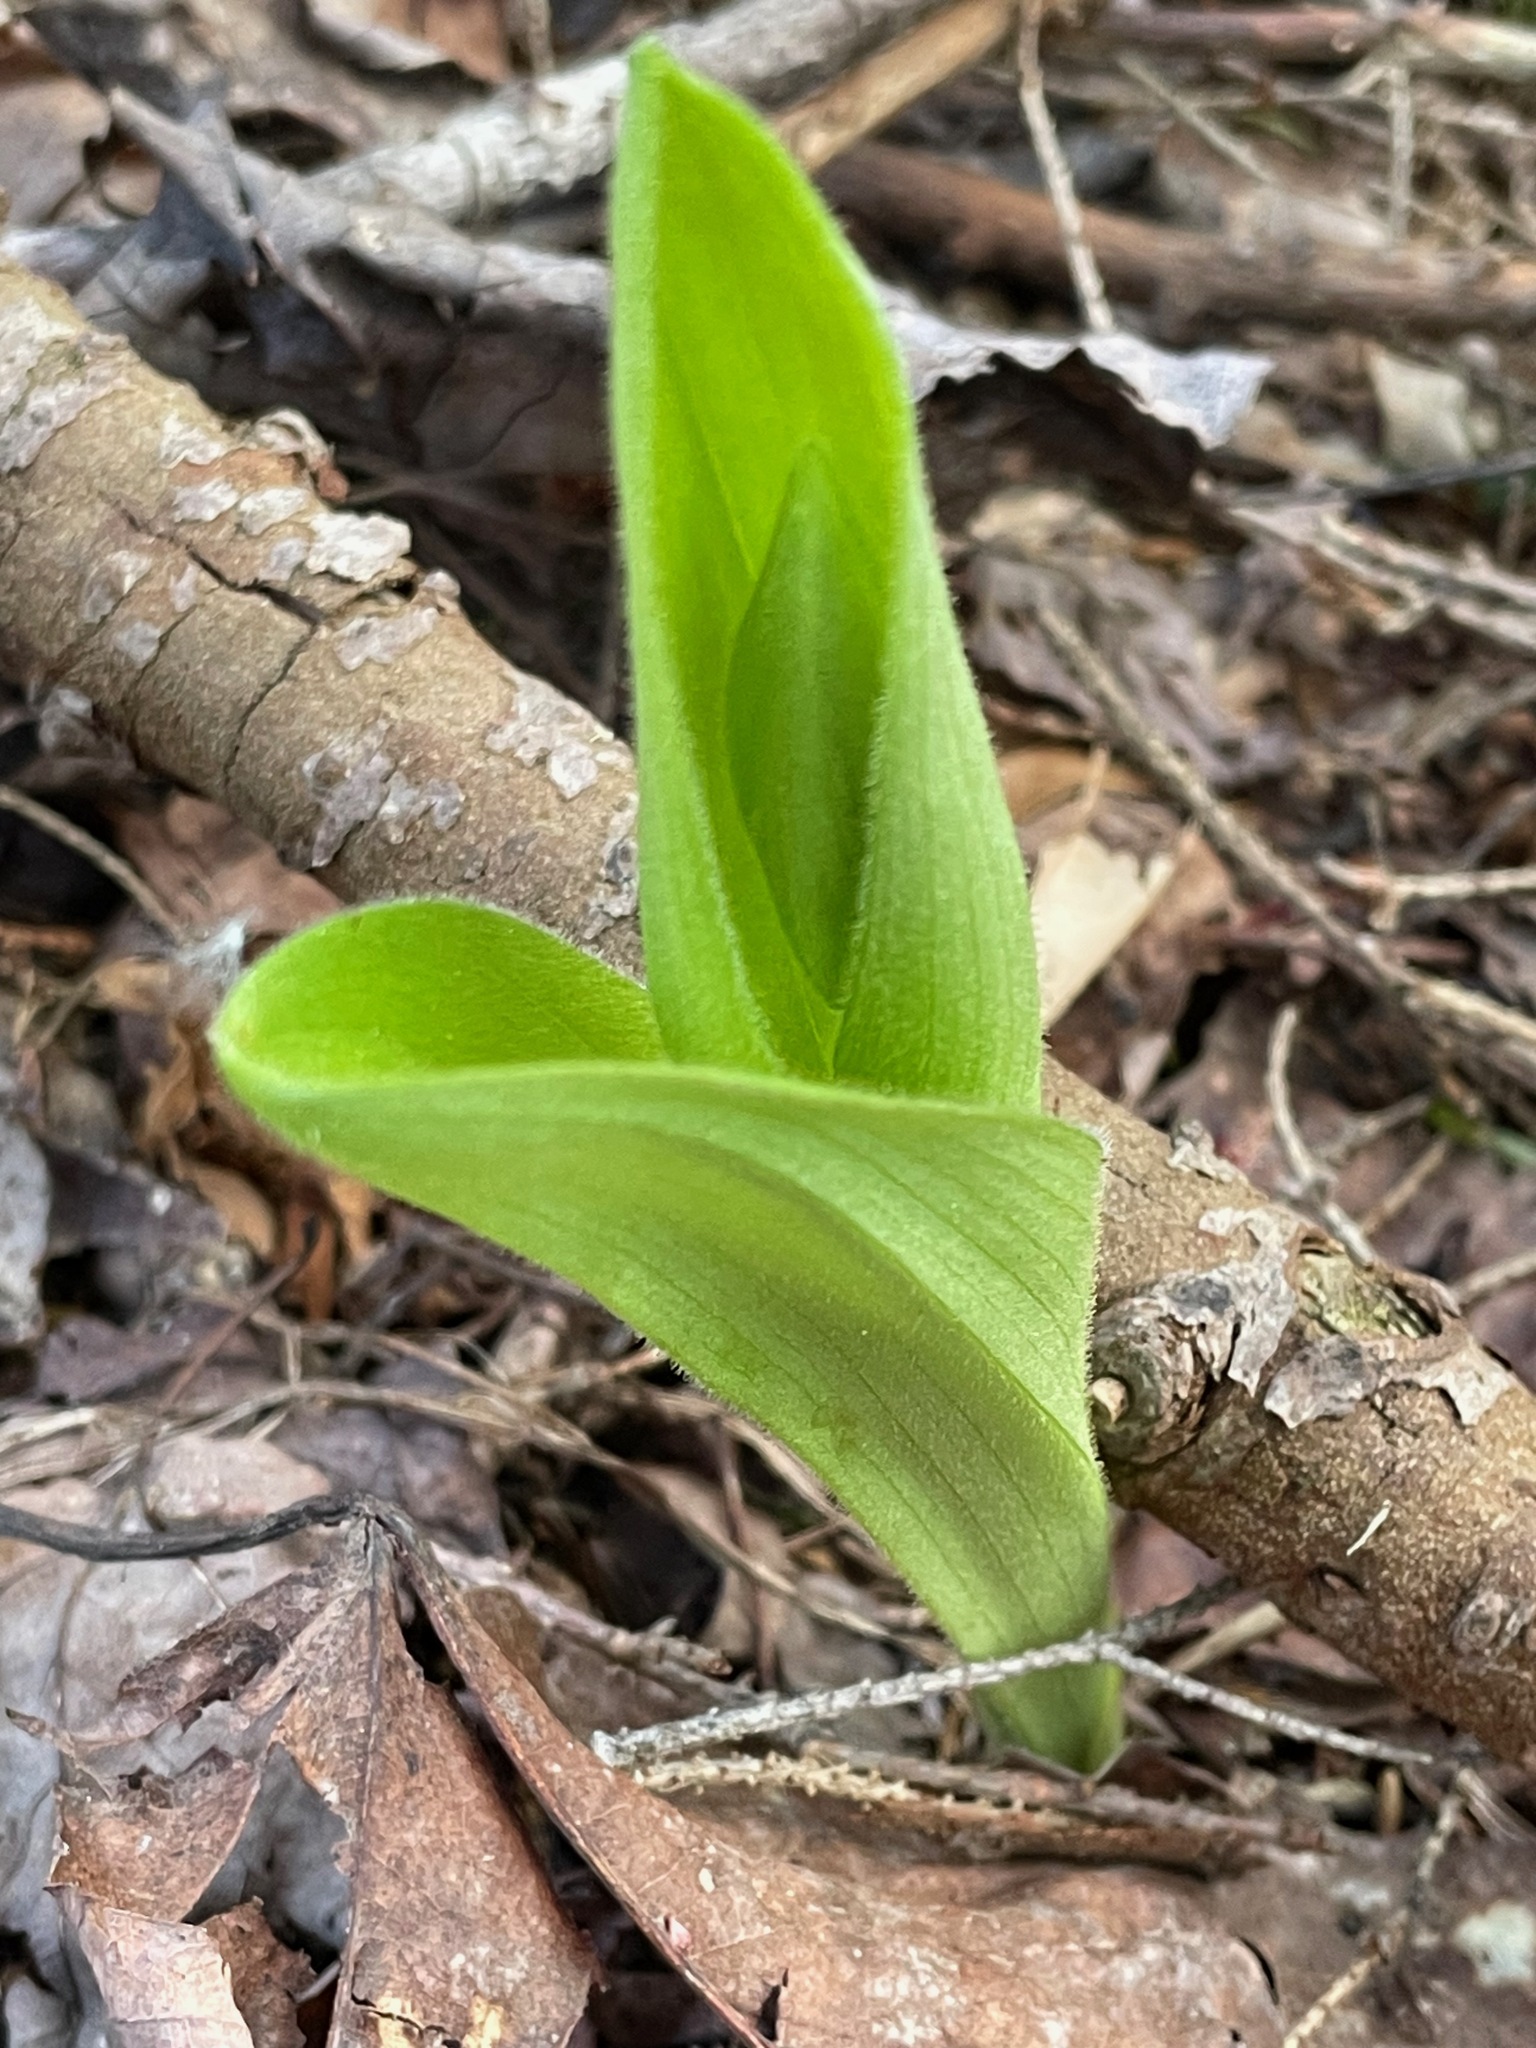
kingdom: Plantae
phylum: Tracheophyta
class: Liliopsida
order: Asparagales
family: Orchidaceae
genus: Cypripedium
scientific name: Cypripedium acaule
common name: Pink lady's-slipper
